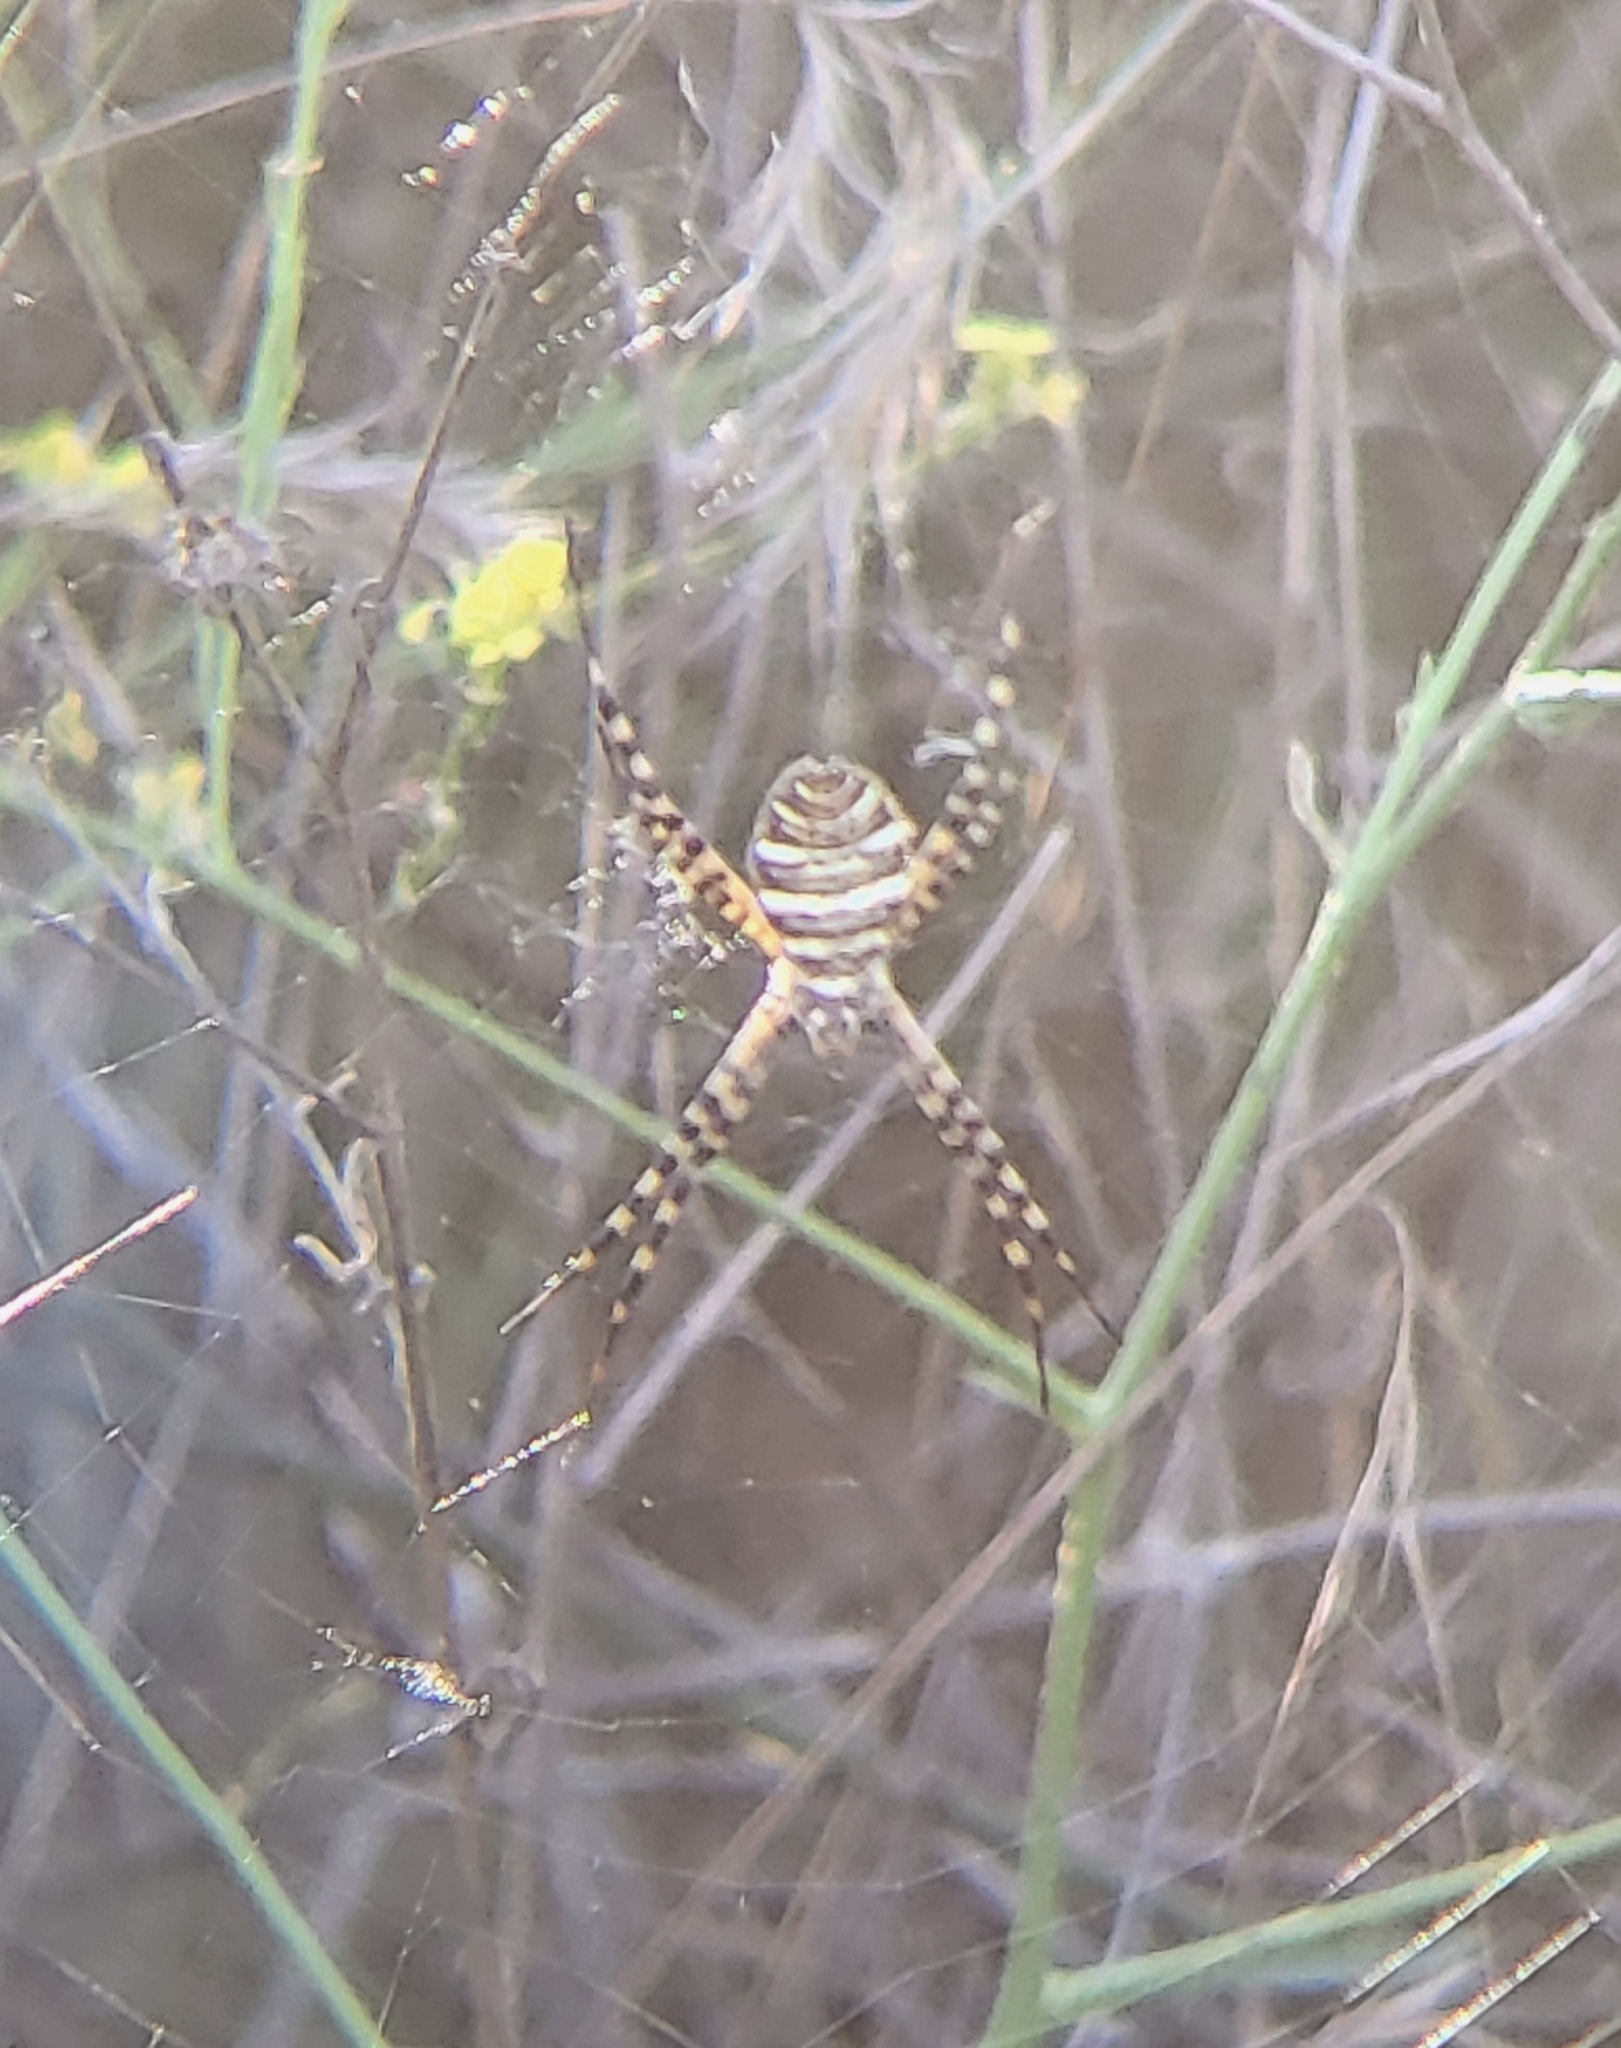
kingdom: Animalia
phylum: Arthropoda
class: Arachnida
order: Araneae
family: Araneidae
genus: Argiope
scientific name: Argiope trifasciata
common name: Banded garden spider
